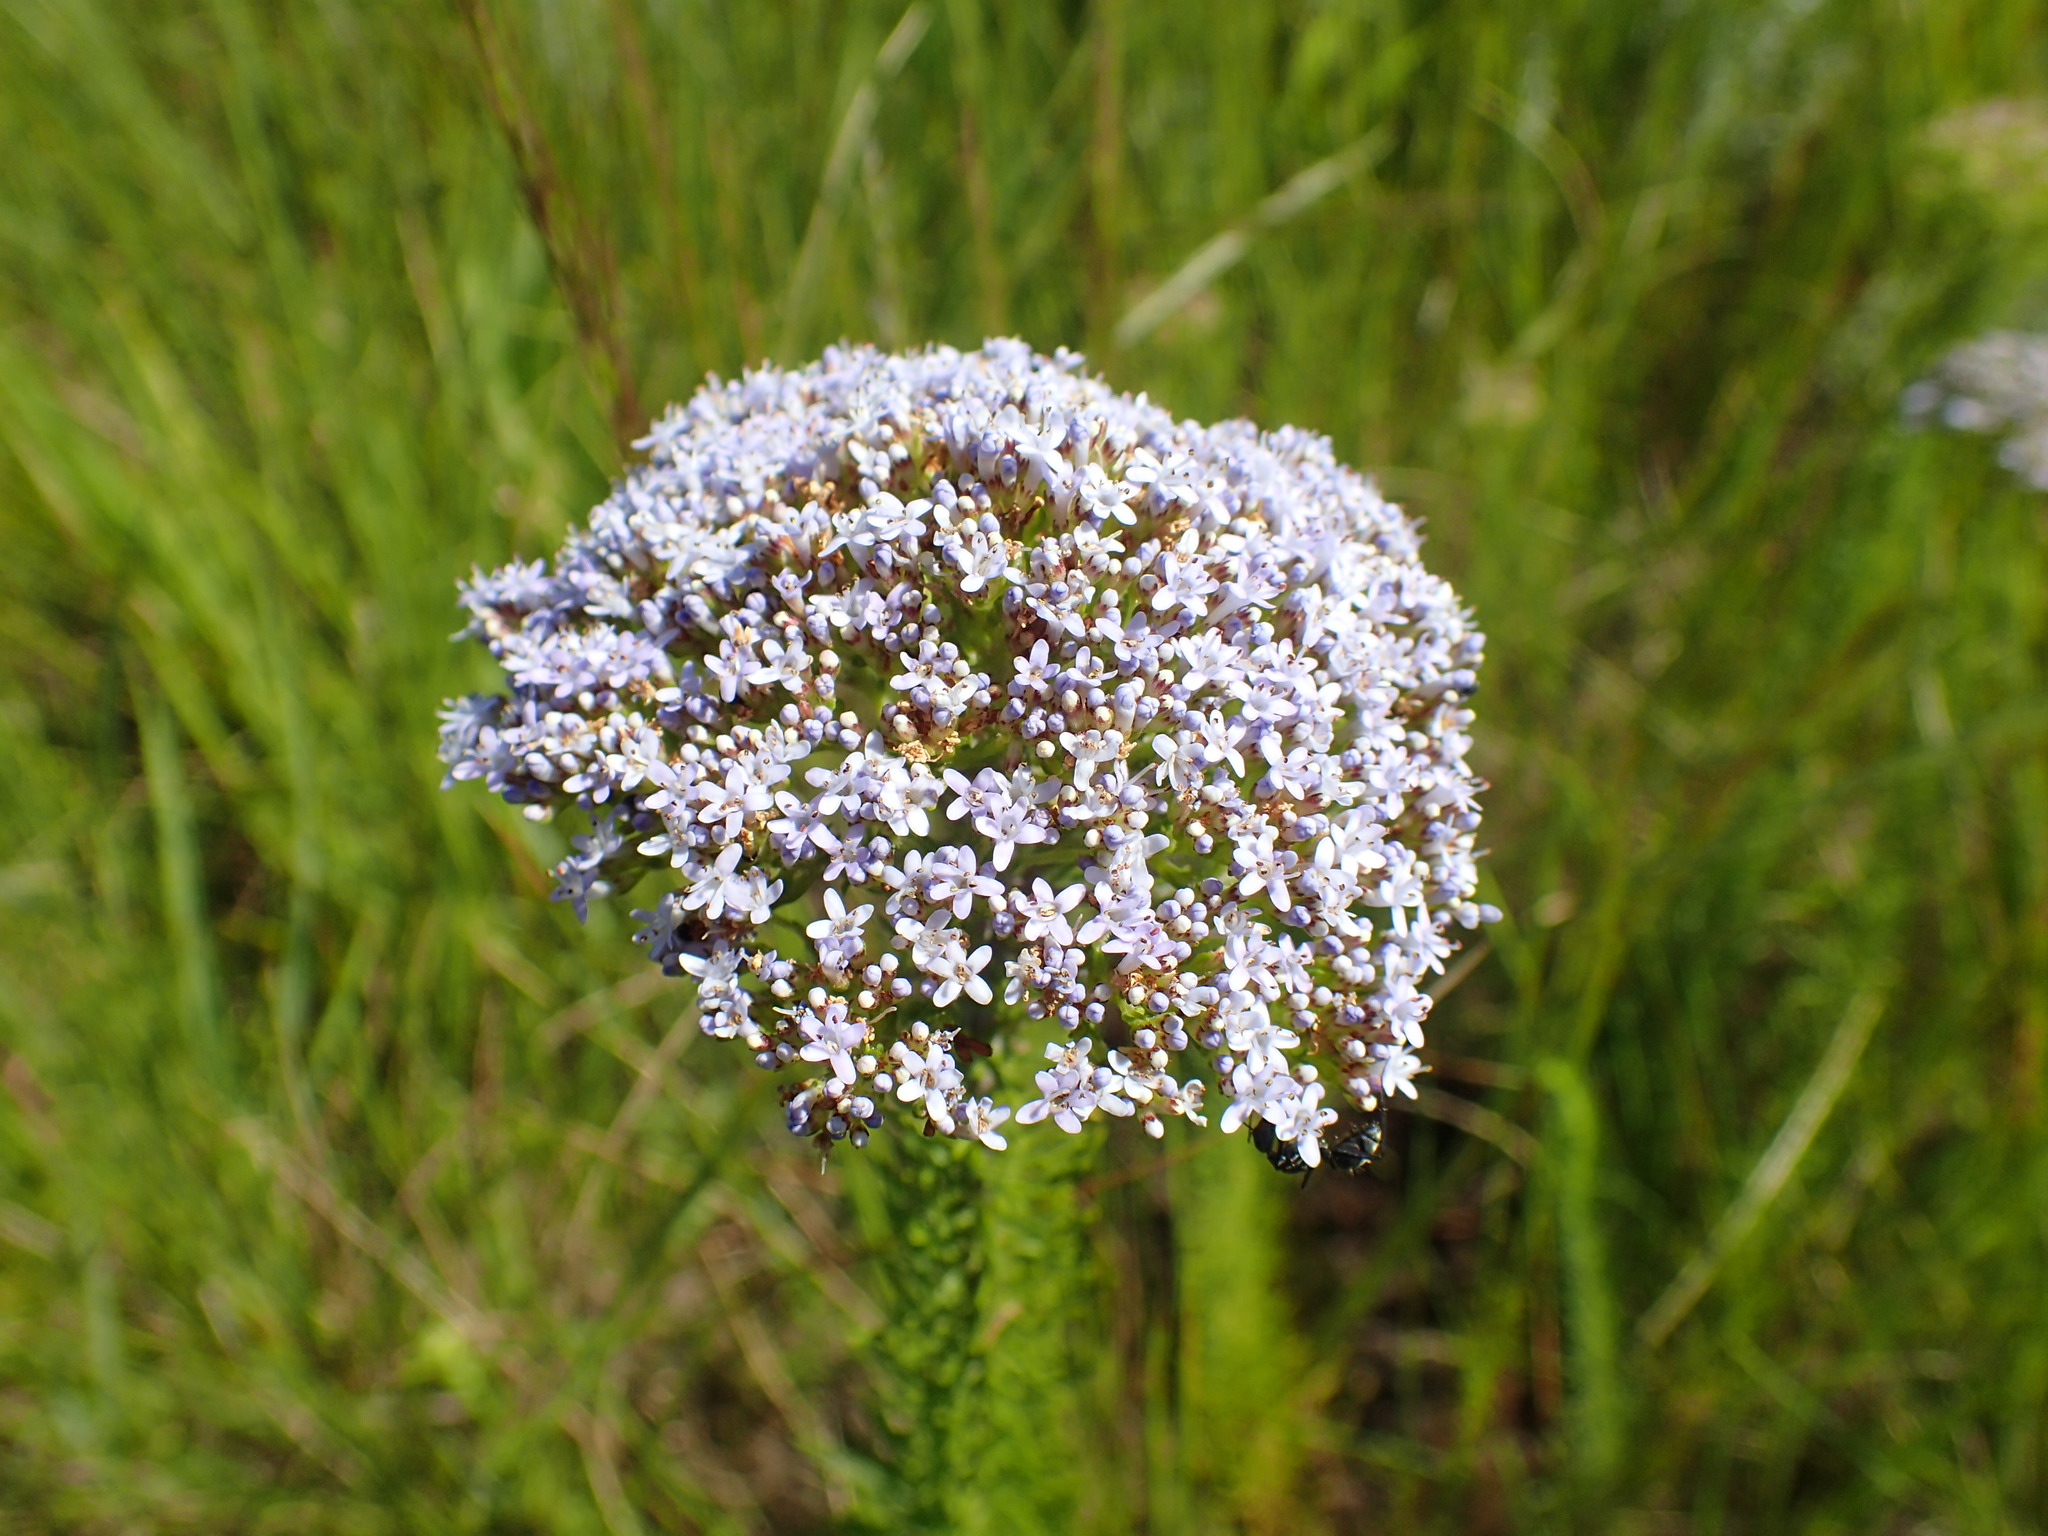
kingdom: Plantae
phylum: Tracheophyta
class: Magnoliopsida
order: Lamiales
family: Scrophulariaceae
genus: Tetraselago
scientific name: Tetraselago natalensis
